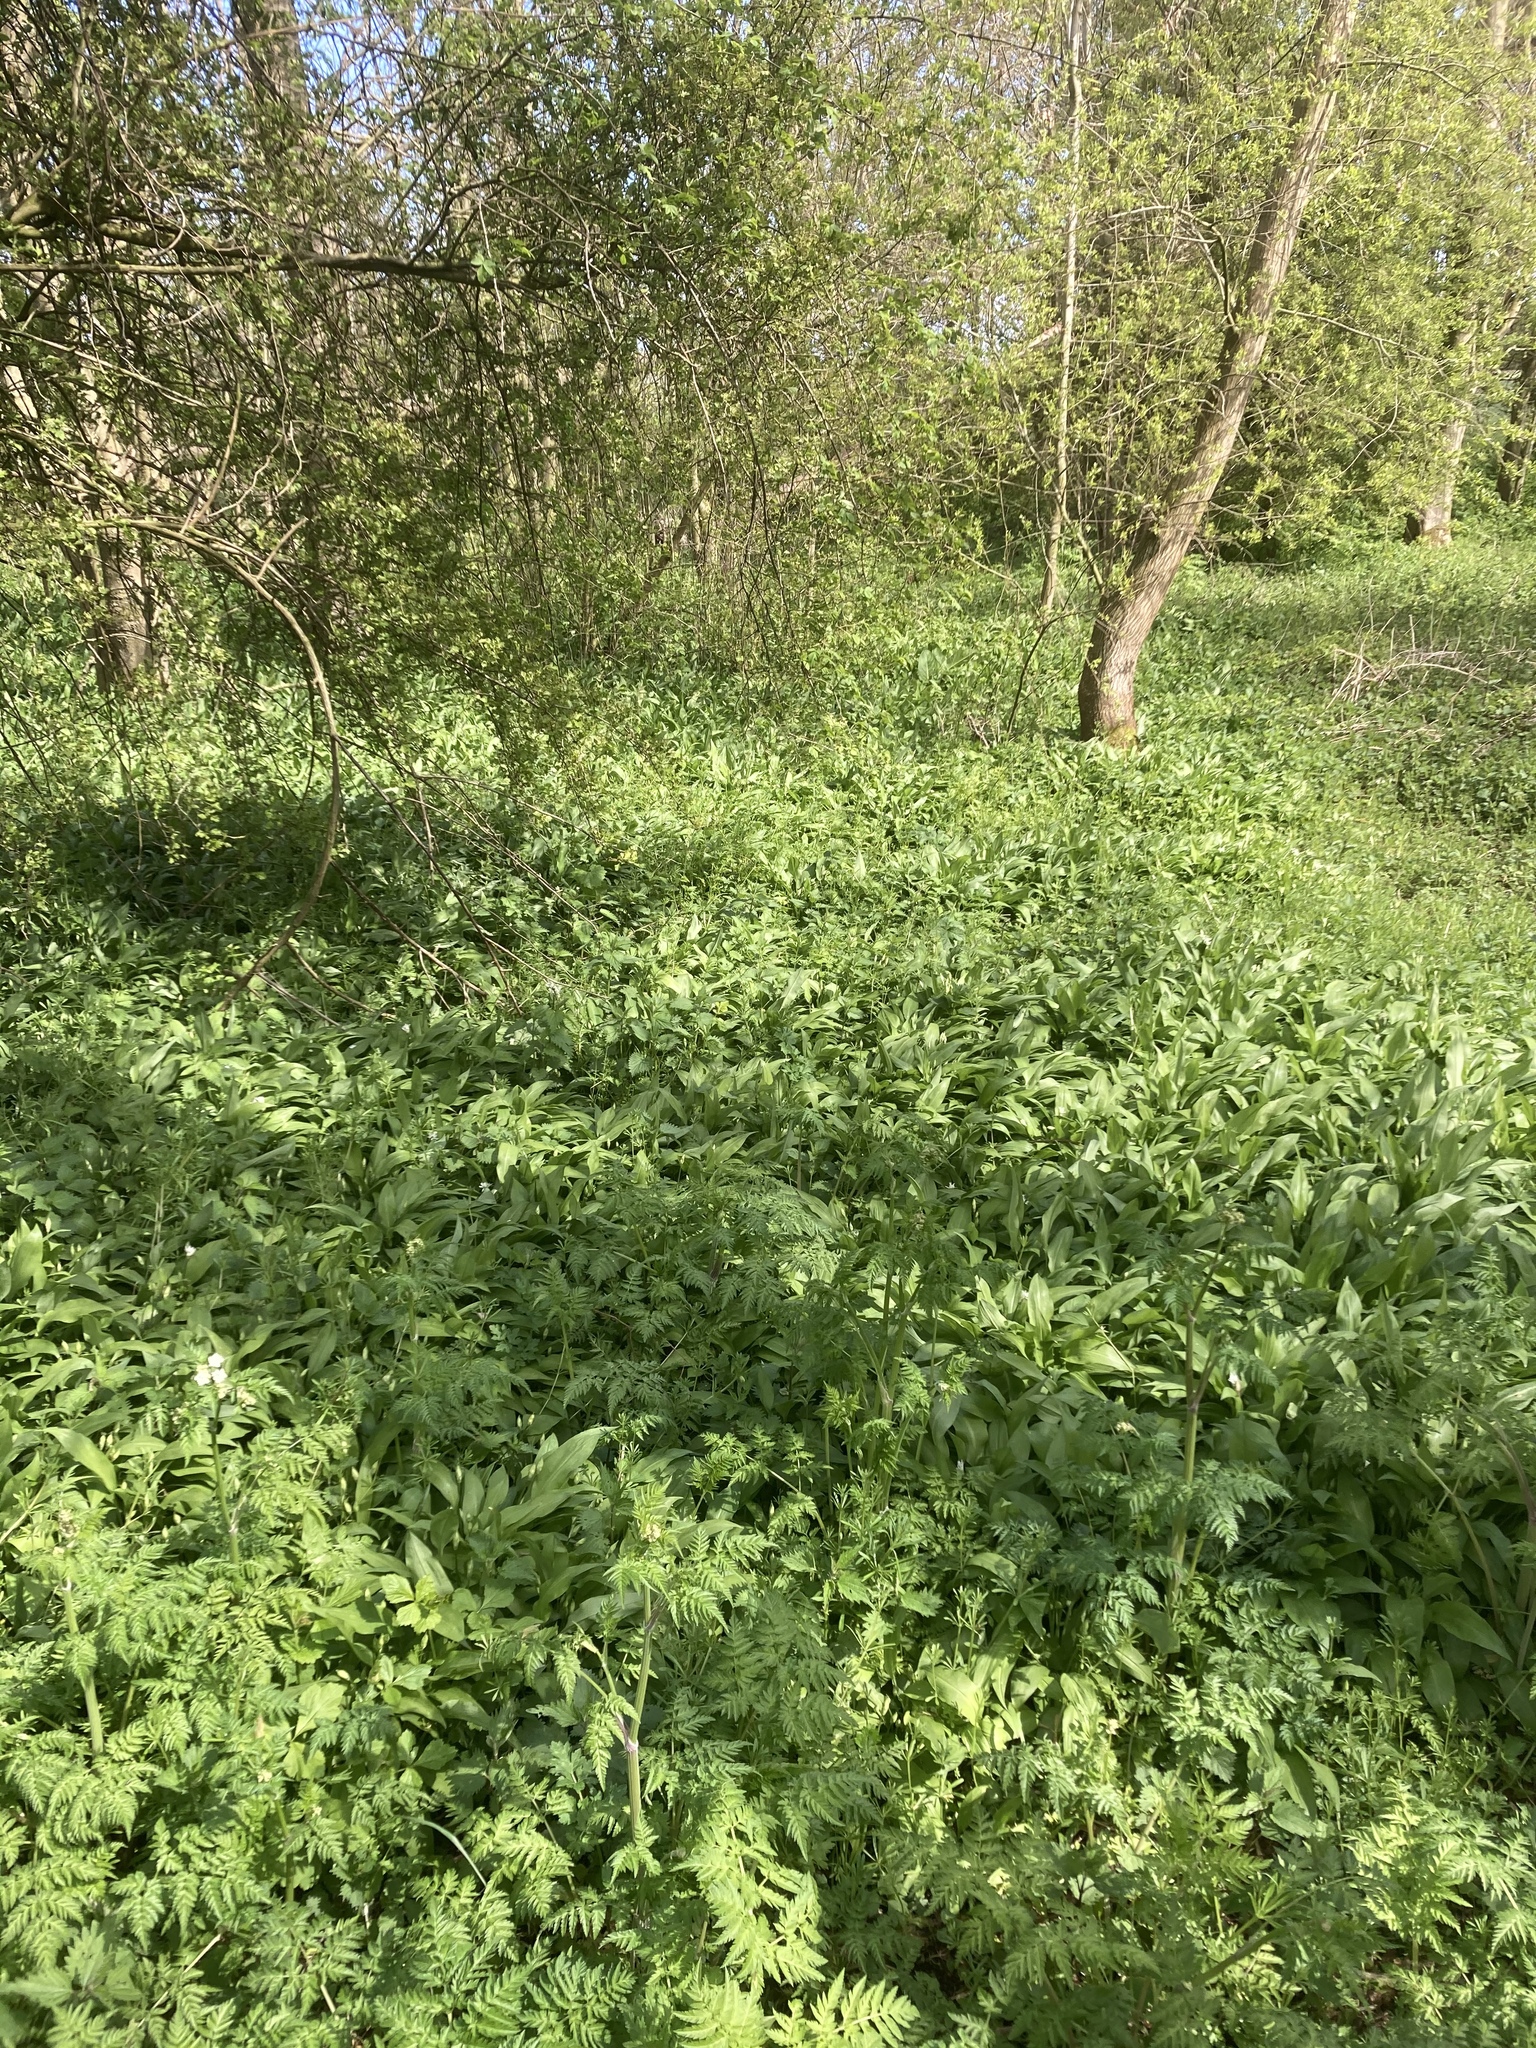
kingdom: Plantae
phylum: Tracheophyta
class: Liliopsida
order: Asparagales
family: Amaryllidaceae
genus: Allium
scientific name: Allium ursinum
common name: Ramsons
